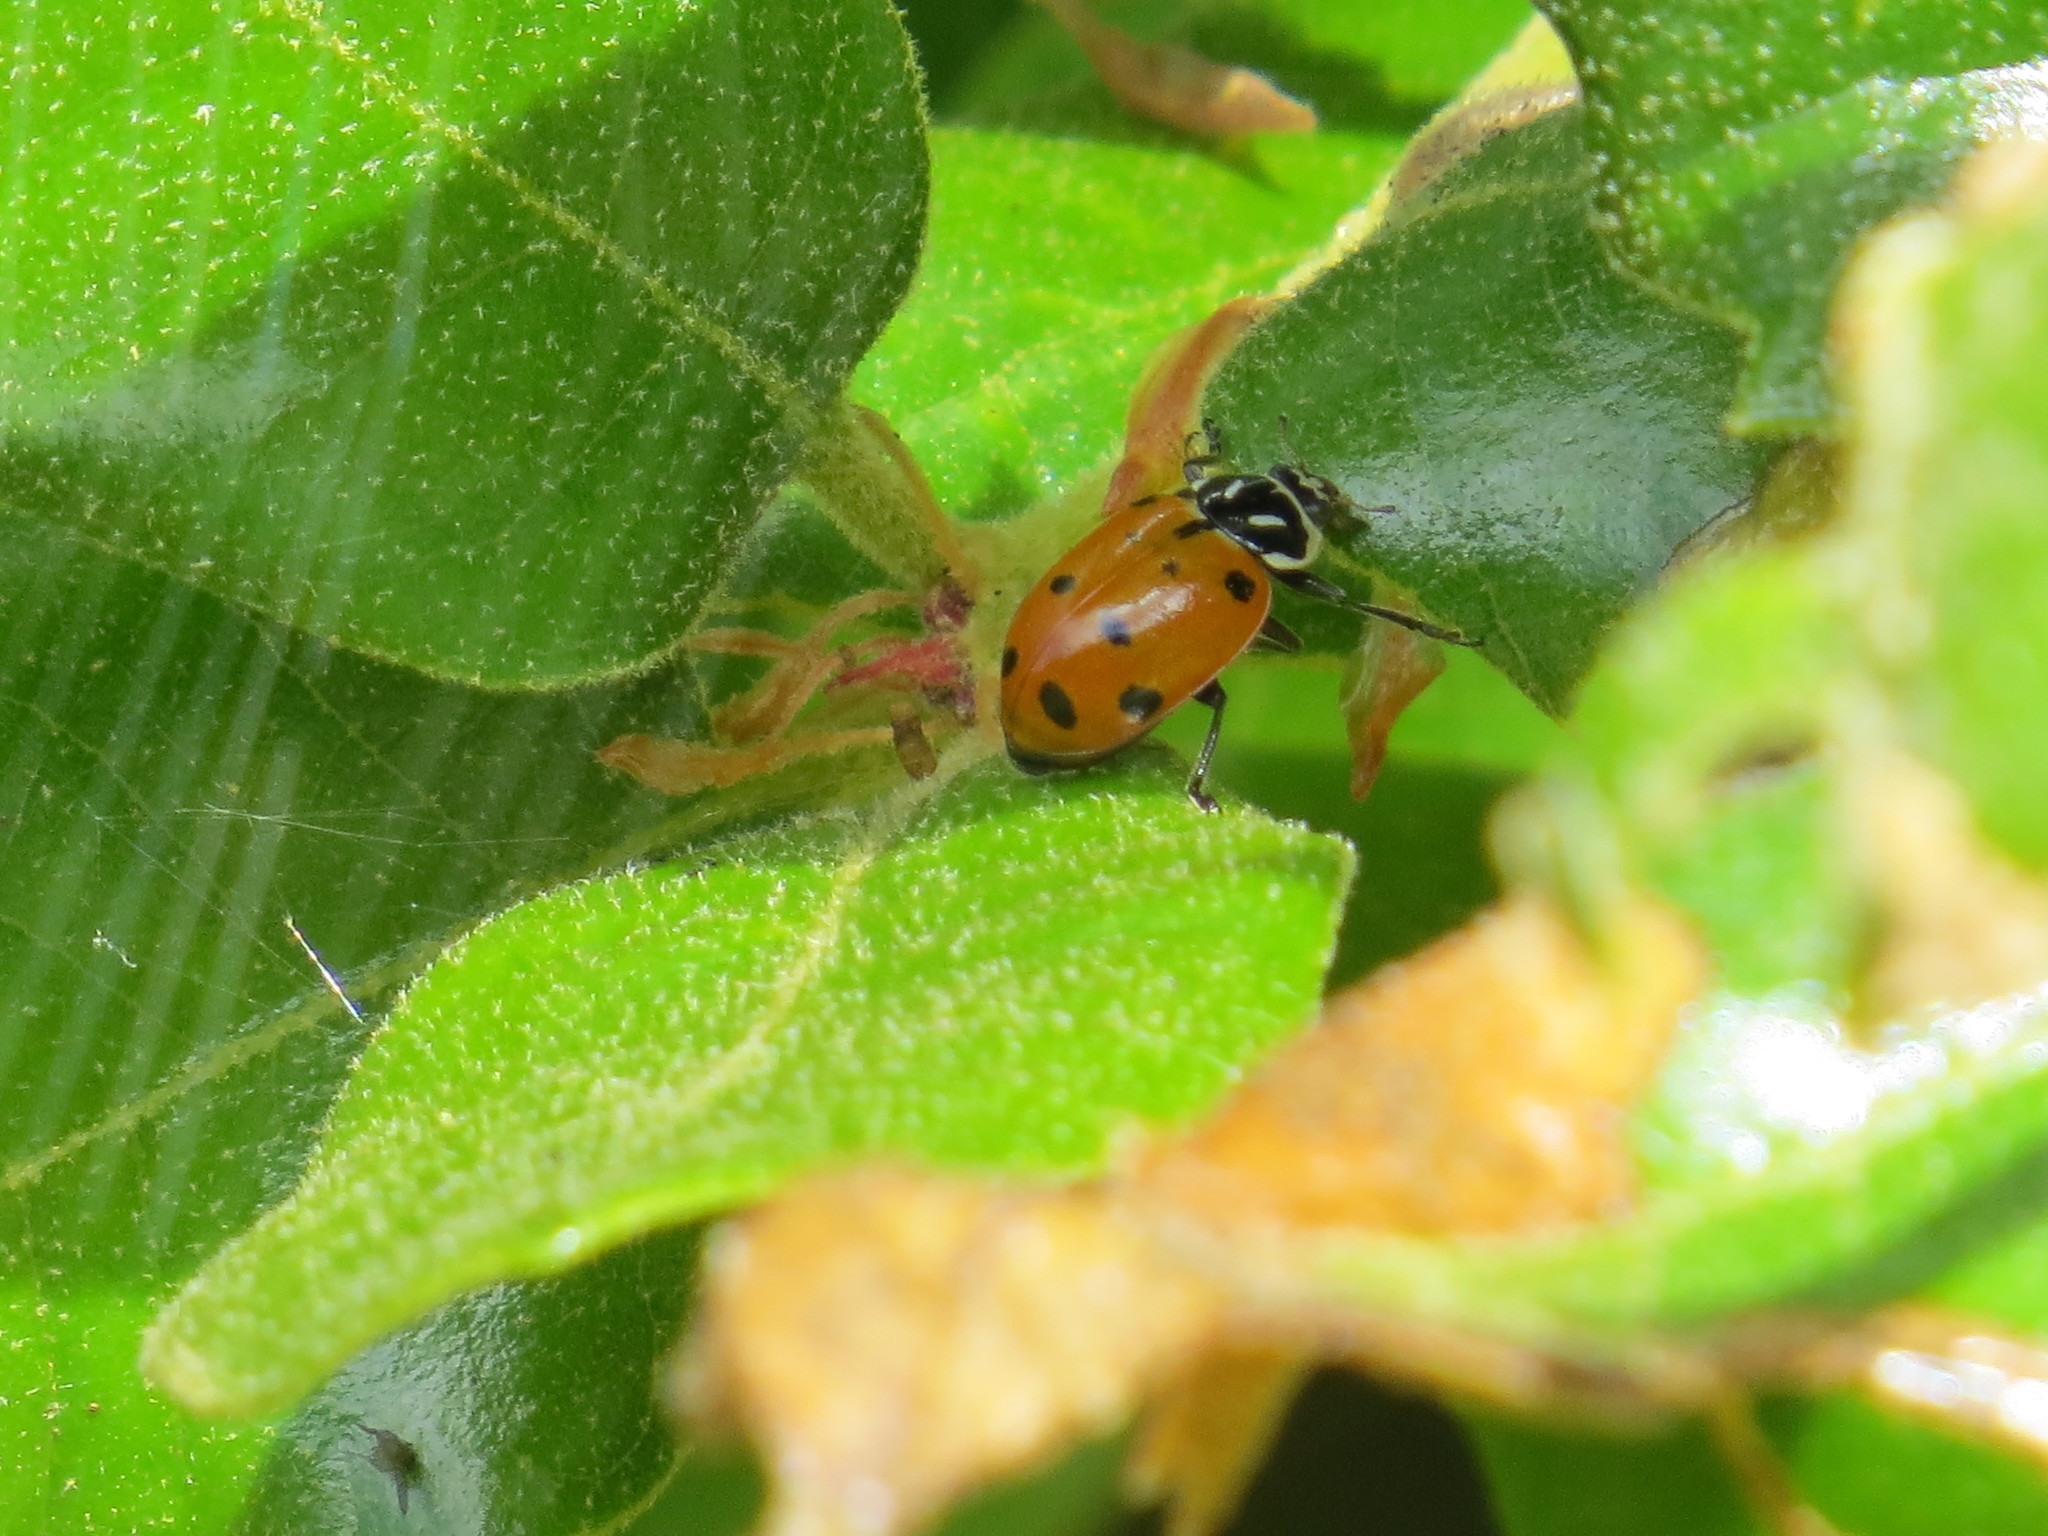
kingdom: Animalia
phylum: Arthropoda
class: Insecta
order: Coleoptera
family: Coccinellidae
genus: Hippodamia
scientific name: Hippodamia convergens
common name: Convergent lady beetle
